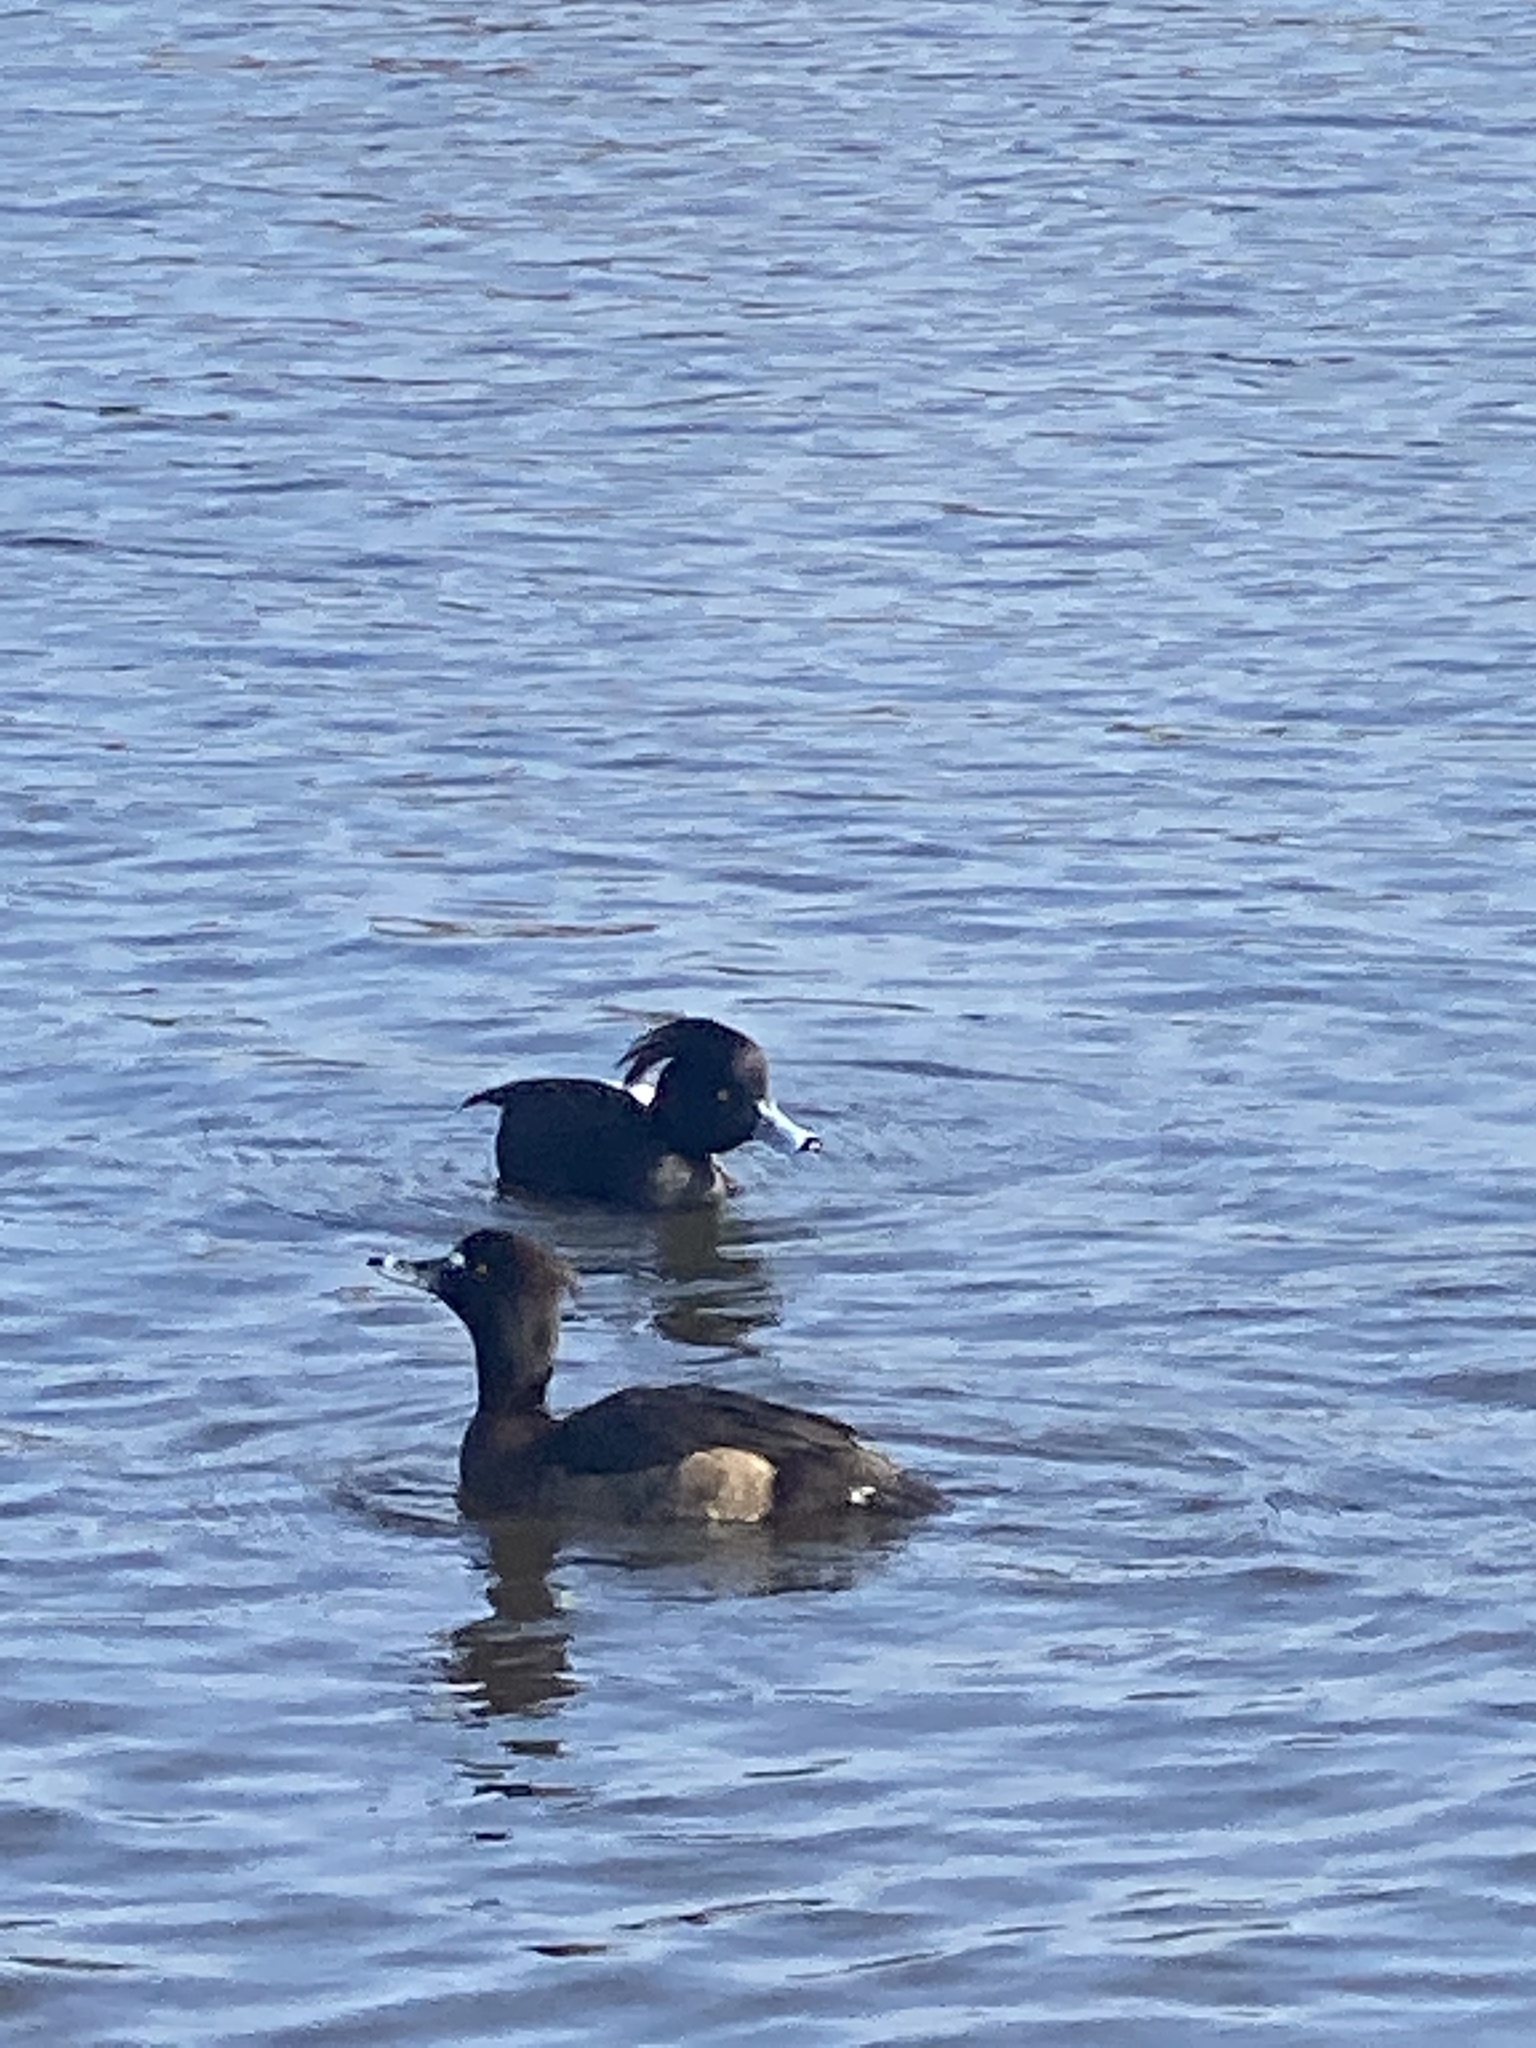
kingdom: Animalia
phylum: Chordata
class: Aves
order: Anseriformes
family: Anatidae
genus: Aythya
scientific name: Aythya fuligula
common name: Tufted duck
